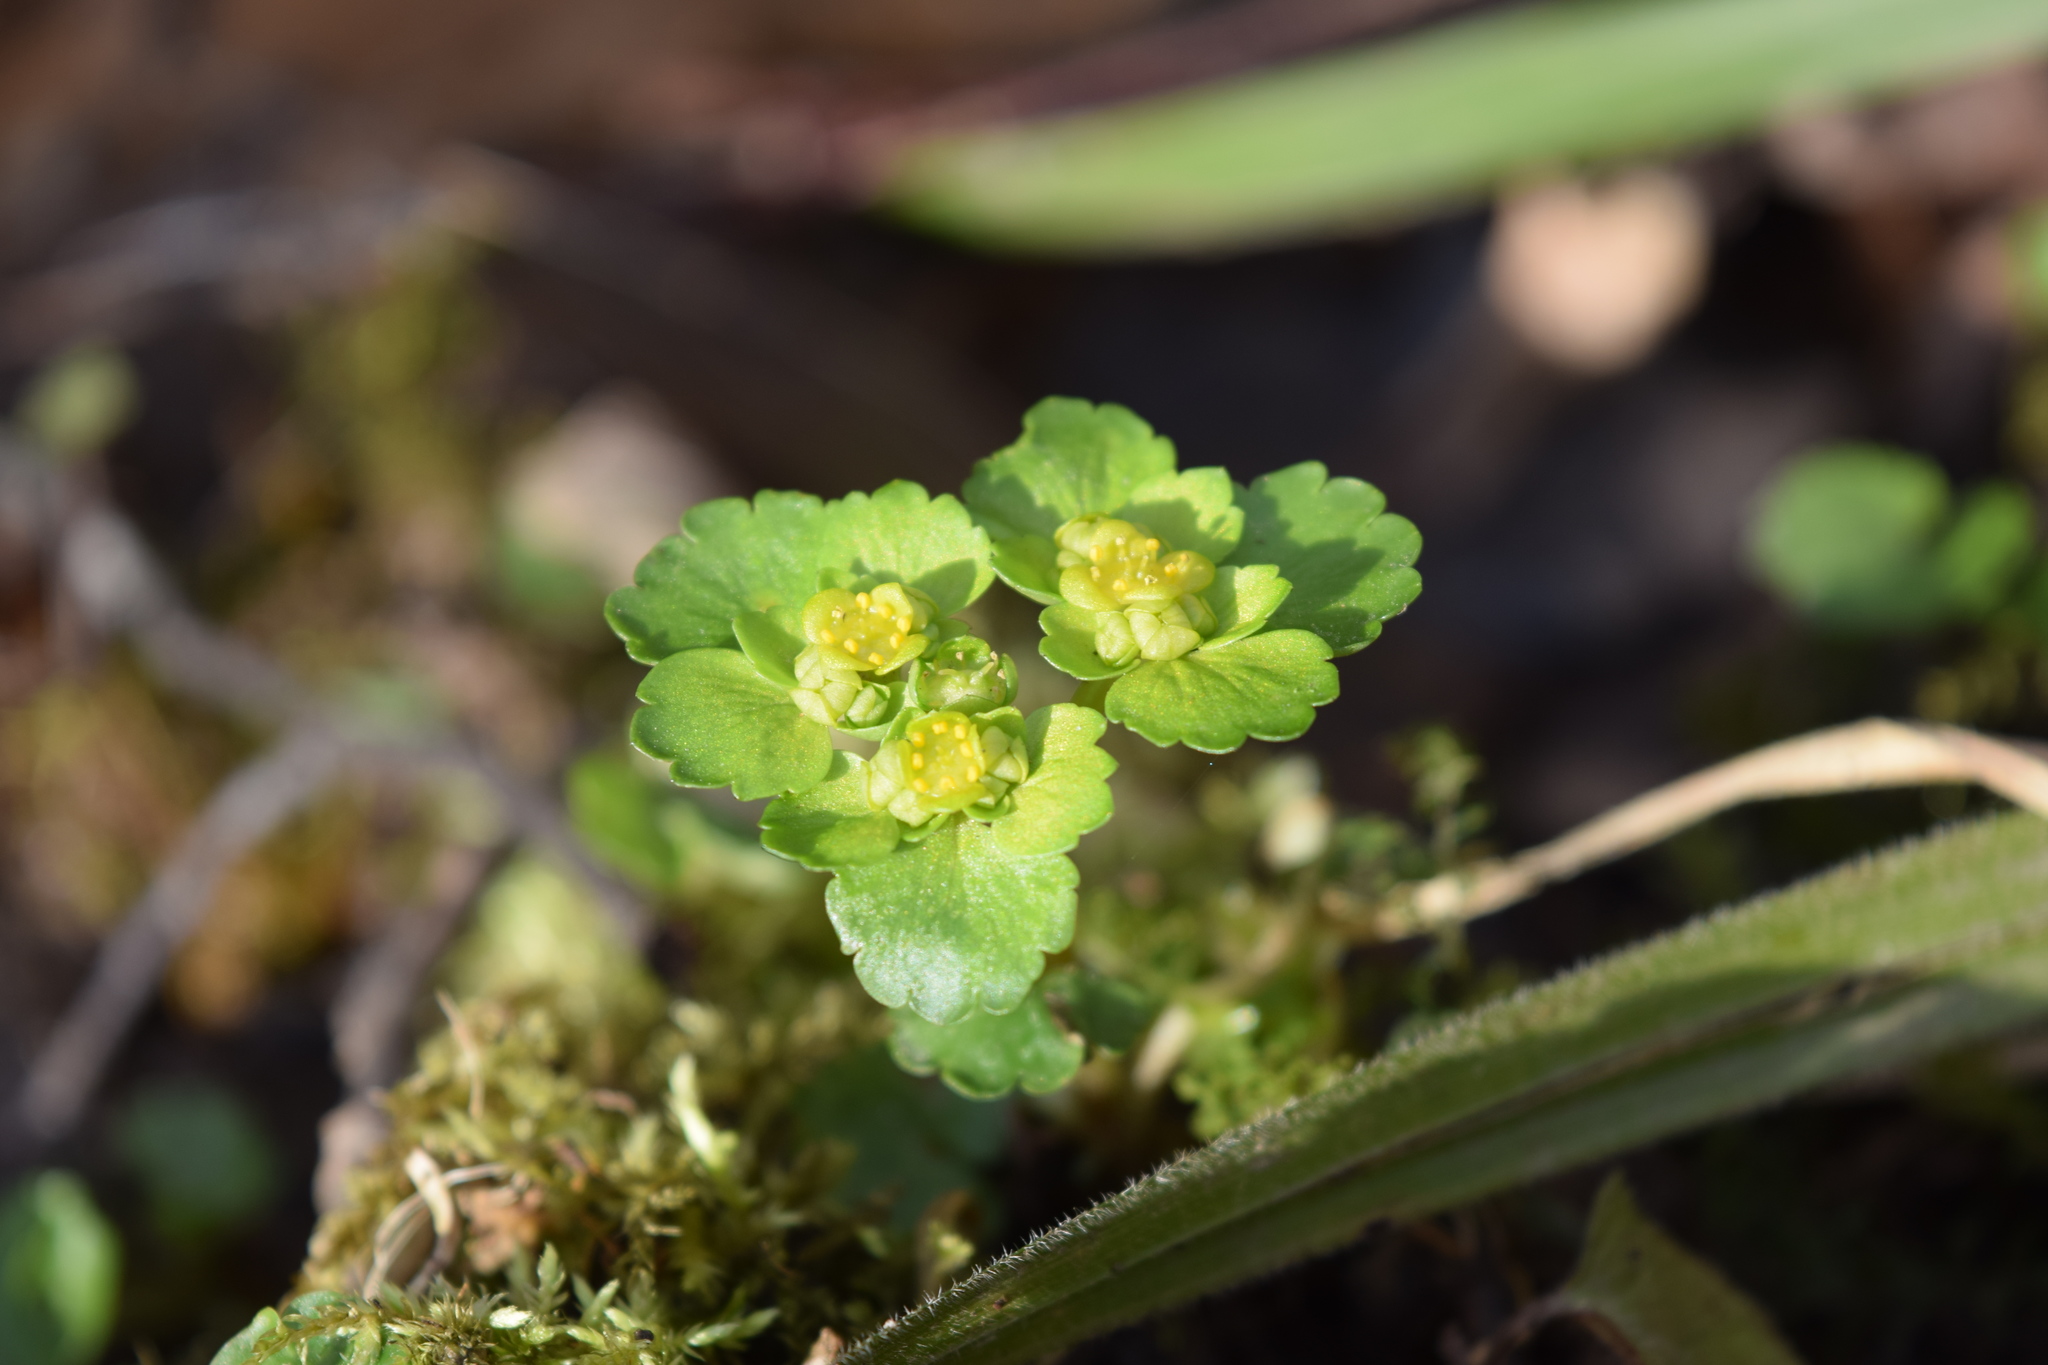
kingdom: Plantae
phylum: Tracheophyta
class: Magnoliopsida
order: Saxifragales
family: Saxifragaceae
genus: Chrysosplenium
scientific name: Chrysosplenium alternifolium
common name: Alternate-leaved golden-saxifrage
